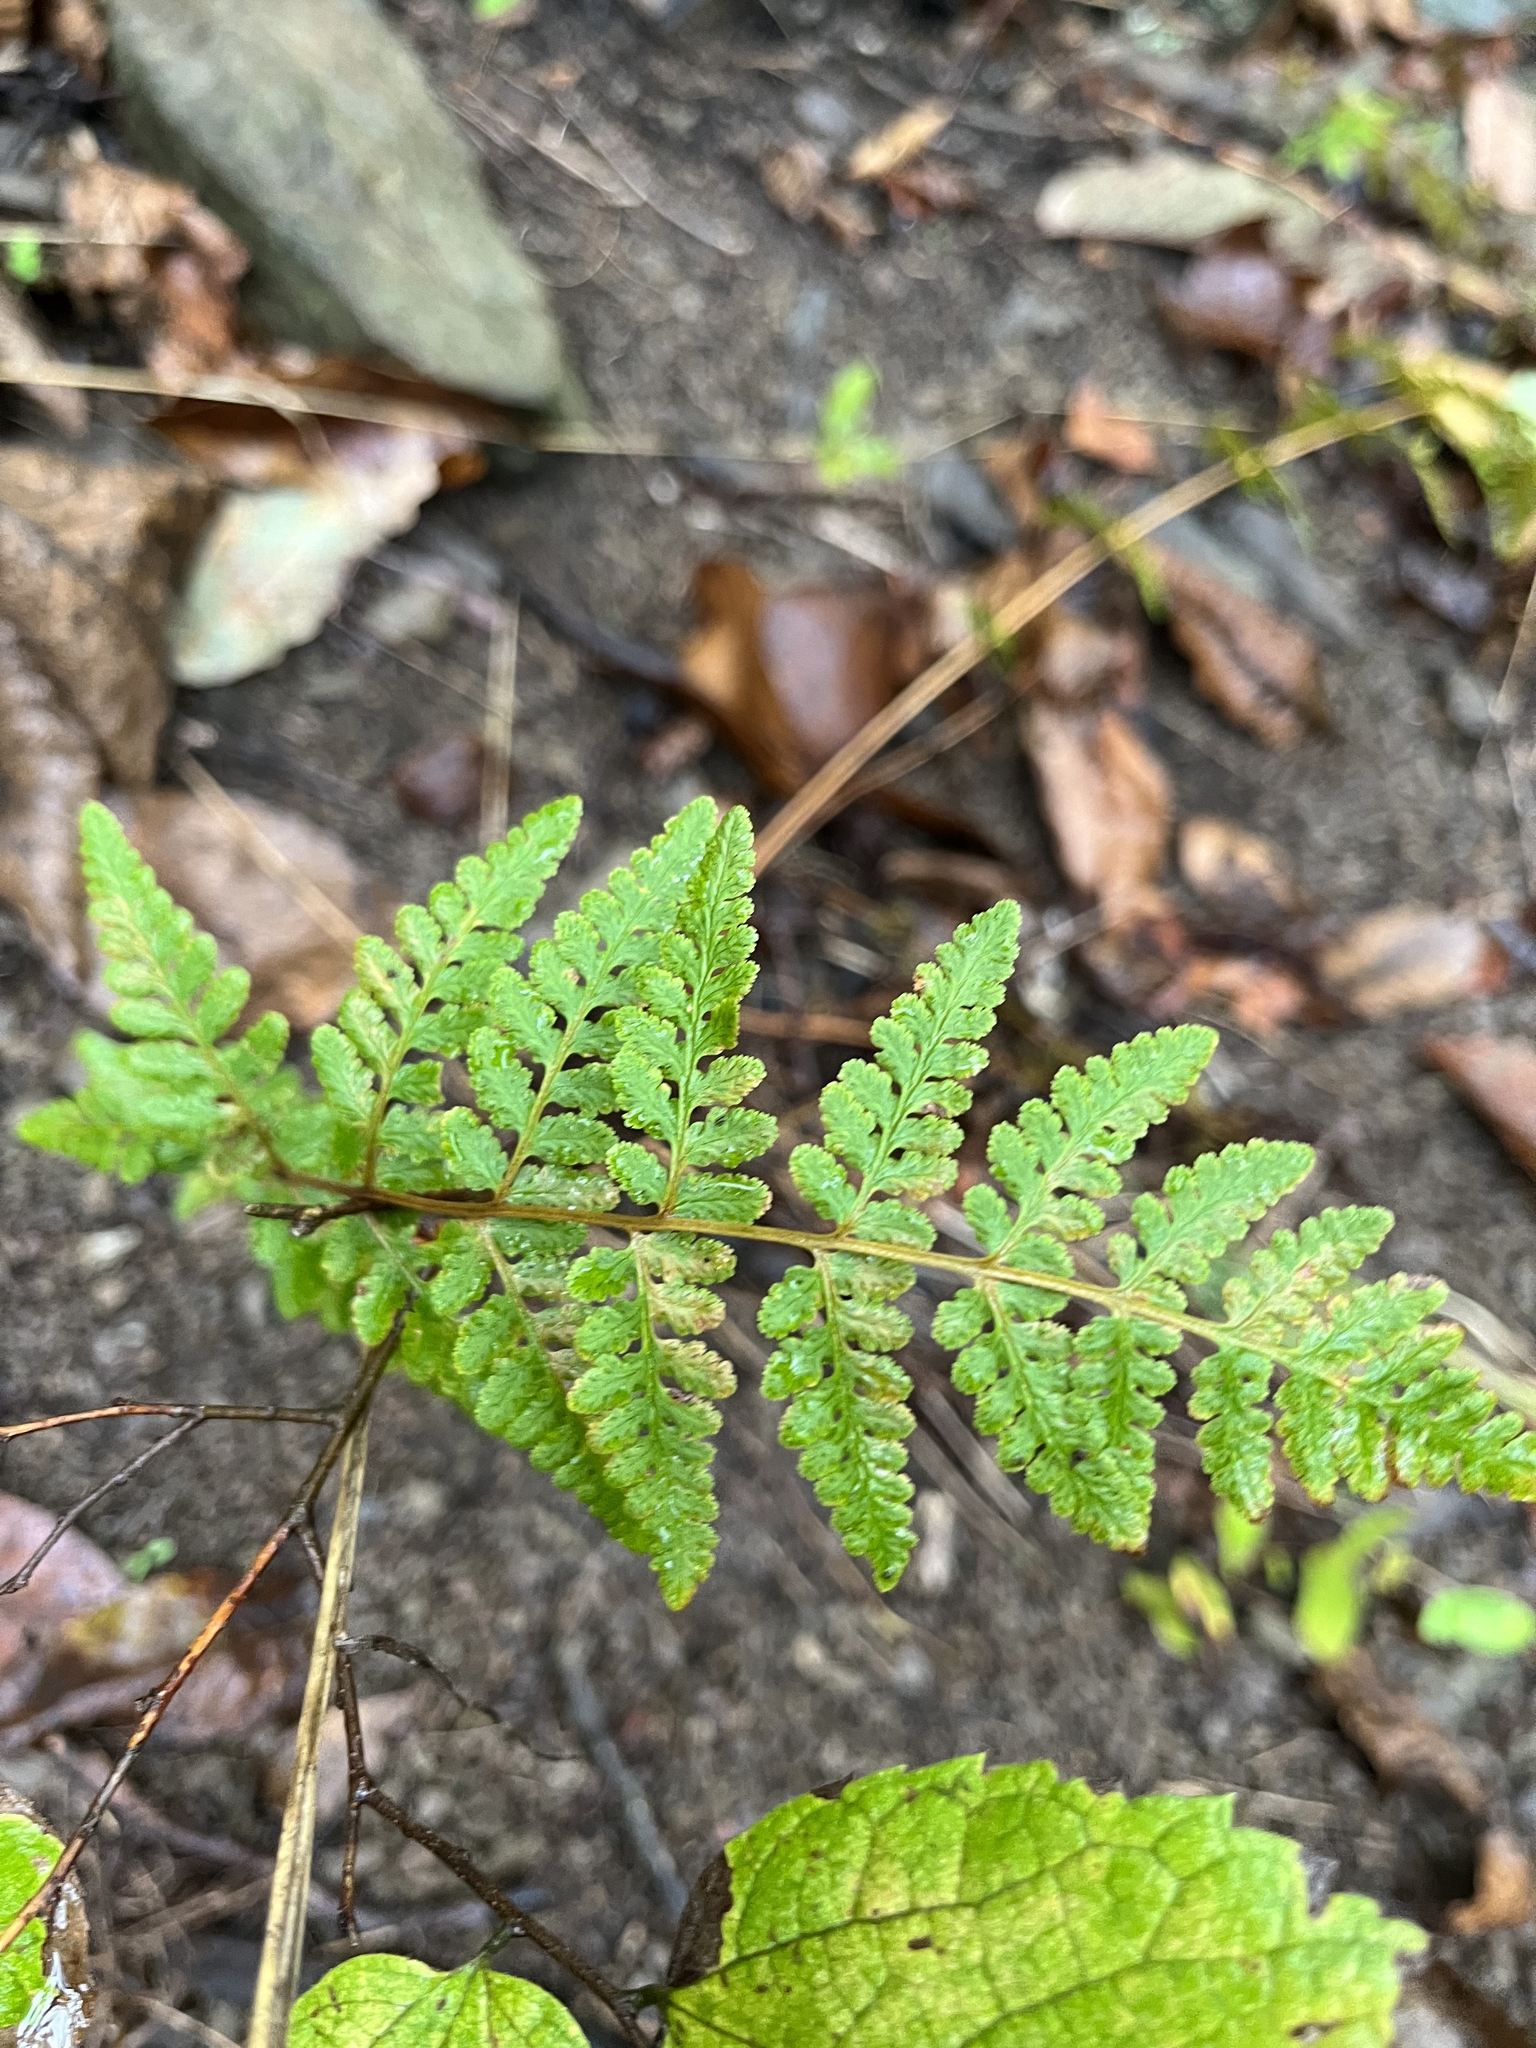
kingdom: Plantae
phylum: Tracheophyta
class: Polypodiopsida
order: Polypodiales
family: Woodsiaceae
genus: Physematium
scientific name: Physematium obtusum
